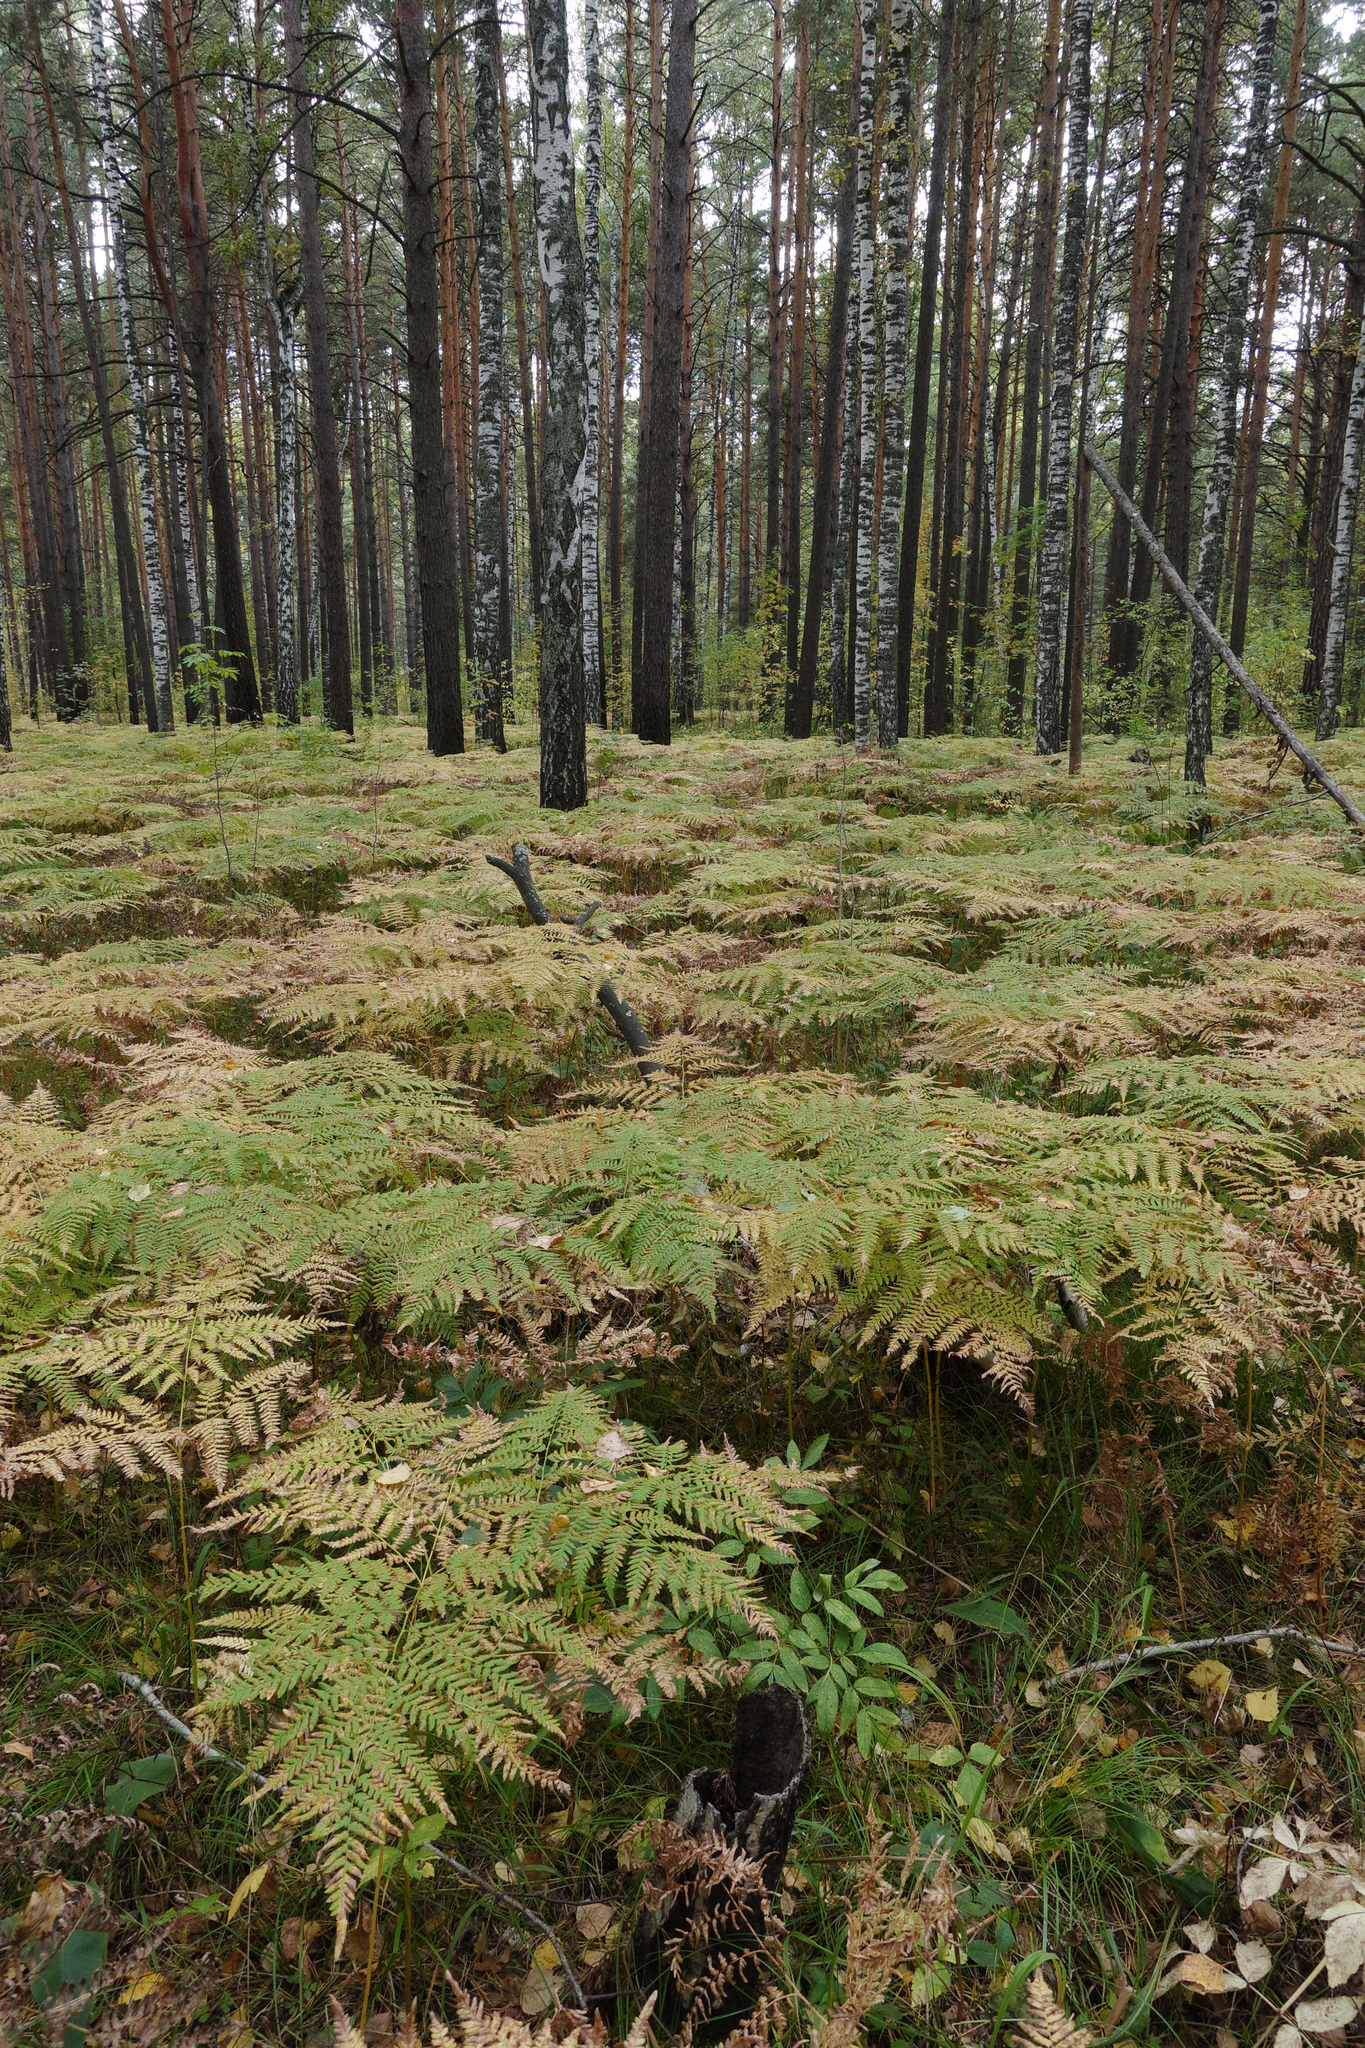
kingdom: Plantae
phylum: Tracheophyta
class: Polypodiopsida
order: Polypodiales
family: Dennstaedtiaceae
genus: Pteridium
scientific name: Pteridium aquilinum
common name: Bracken
